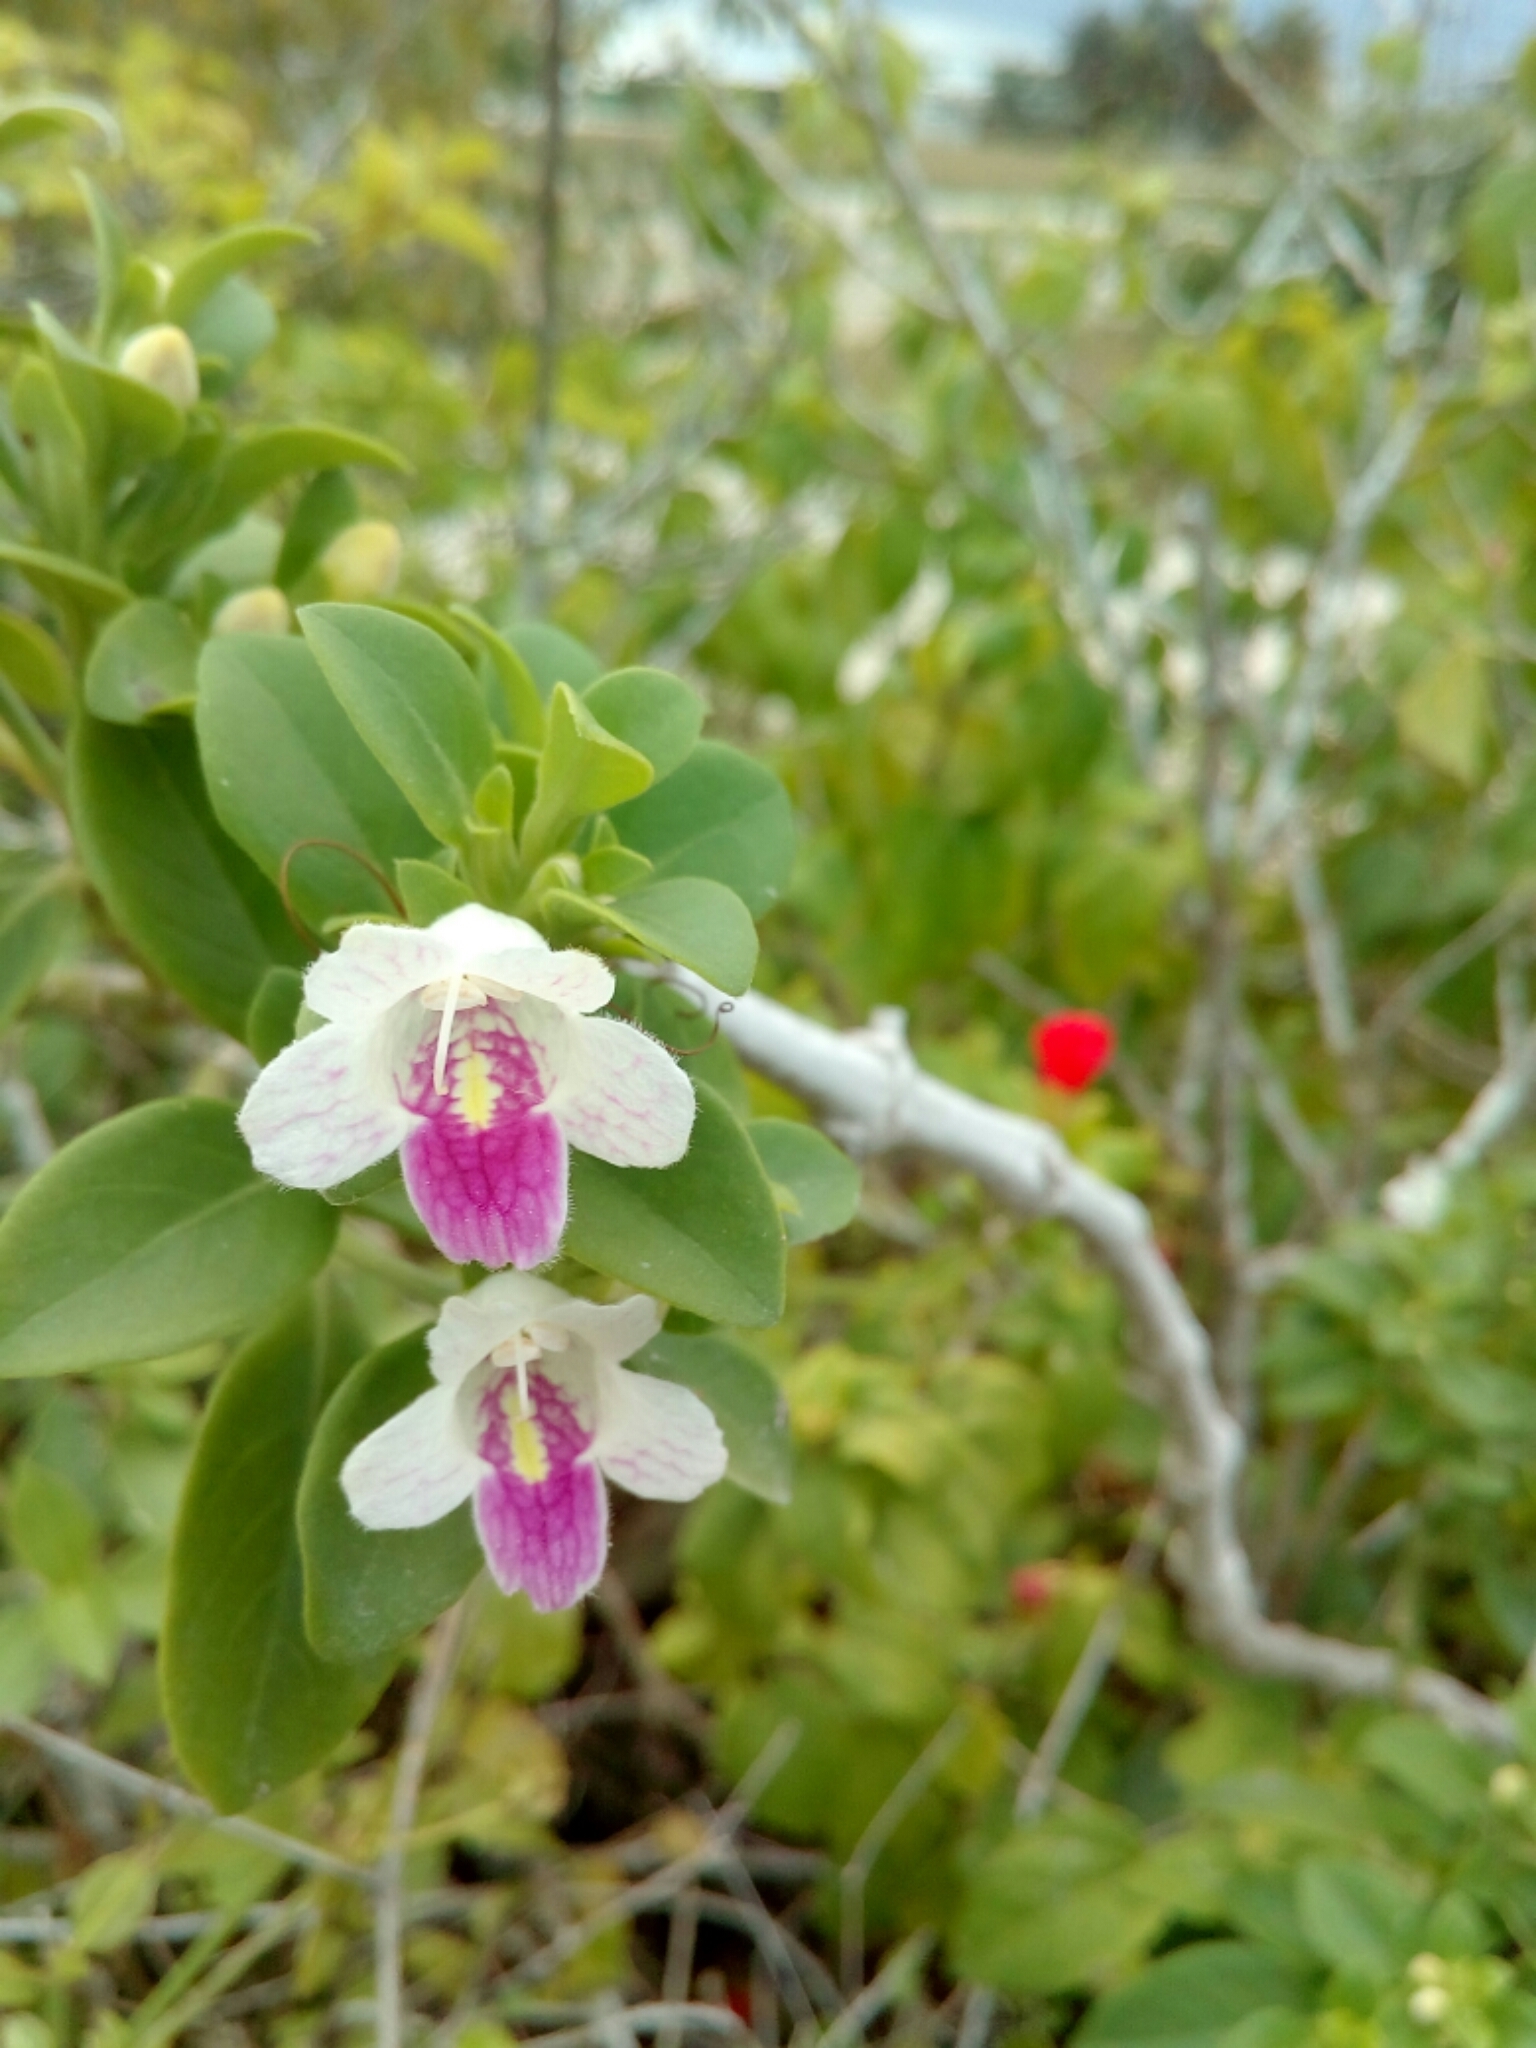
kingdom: Plantae
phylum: Tracheophyta
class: Magnoliopsida
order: Lamiales
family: Acanthaceae
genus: Bravaisia
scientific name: Bravaisia berlandieriana
